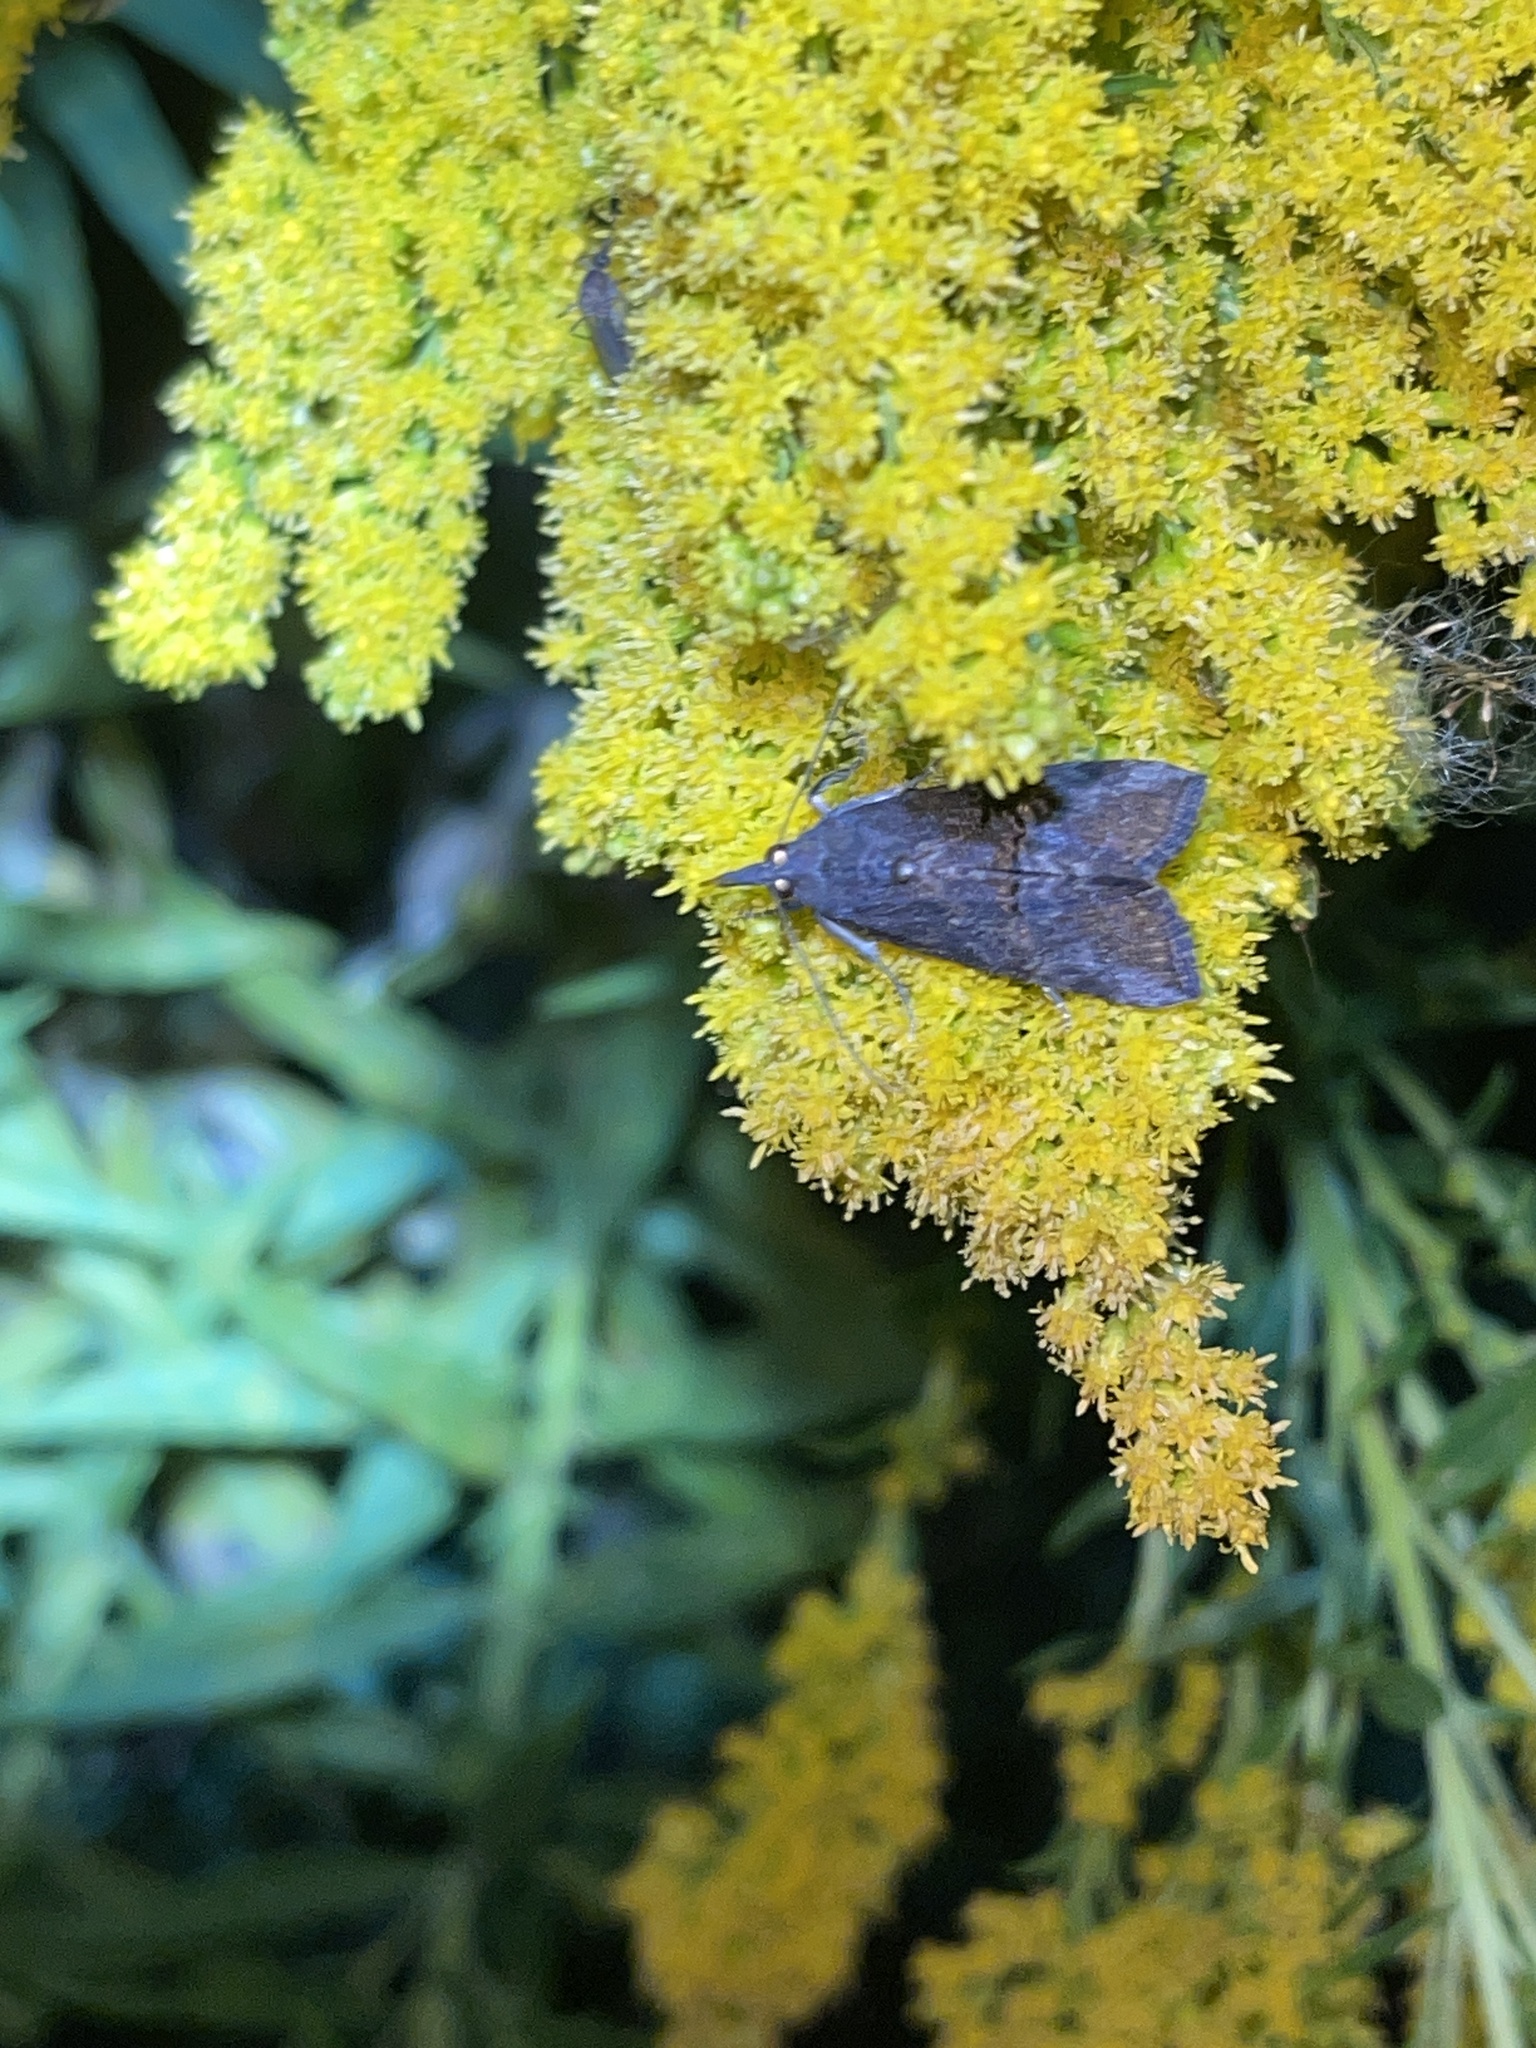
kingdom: Animalia
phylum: Arthropoda
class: Insecta
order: Lepidoptera
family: Erebidae
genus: Hypena
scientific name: Hypena scabra
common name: Green cloverworm
